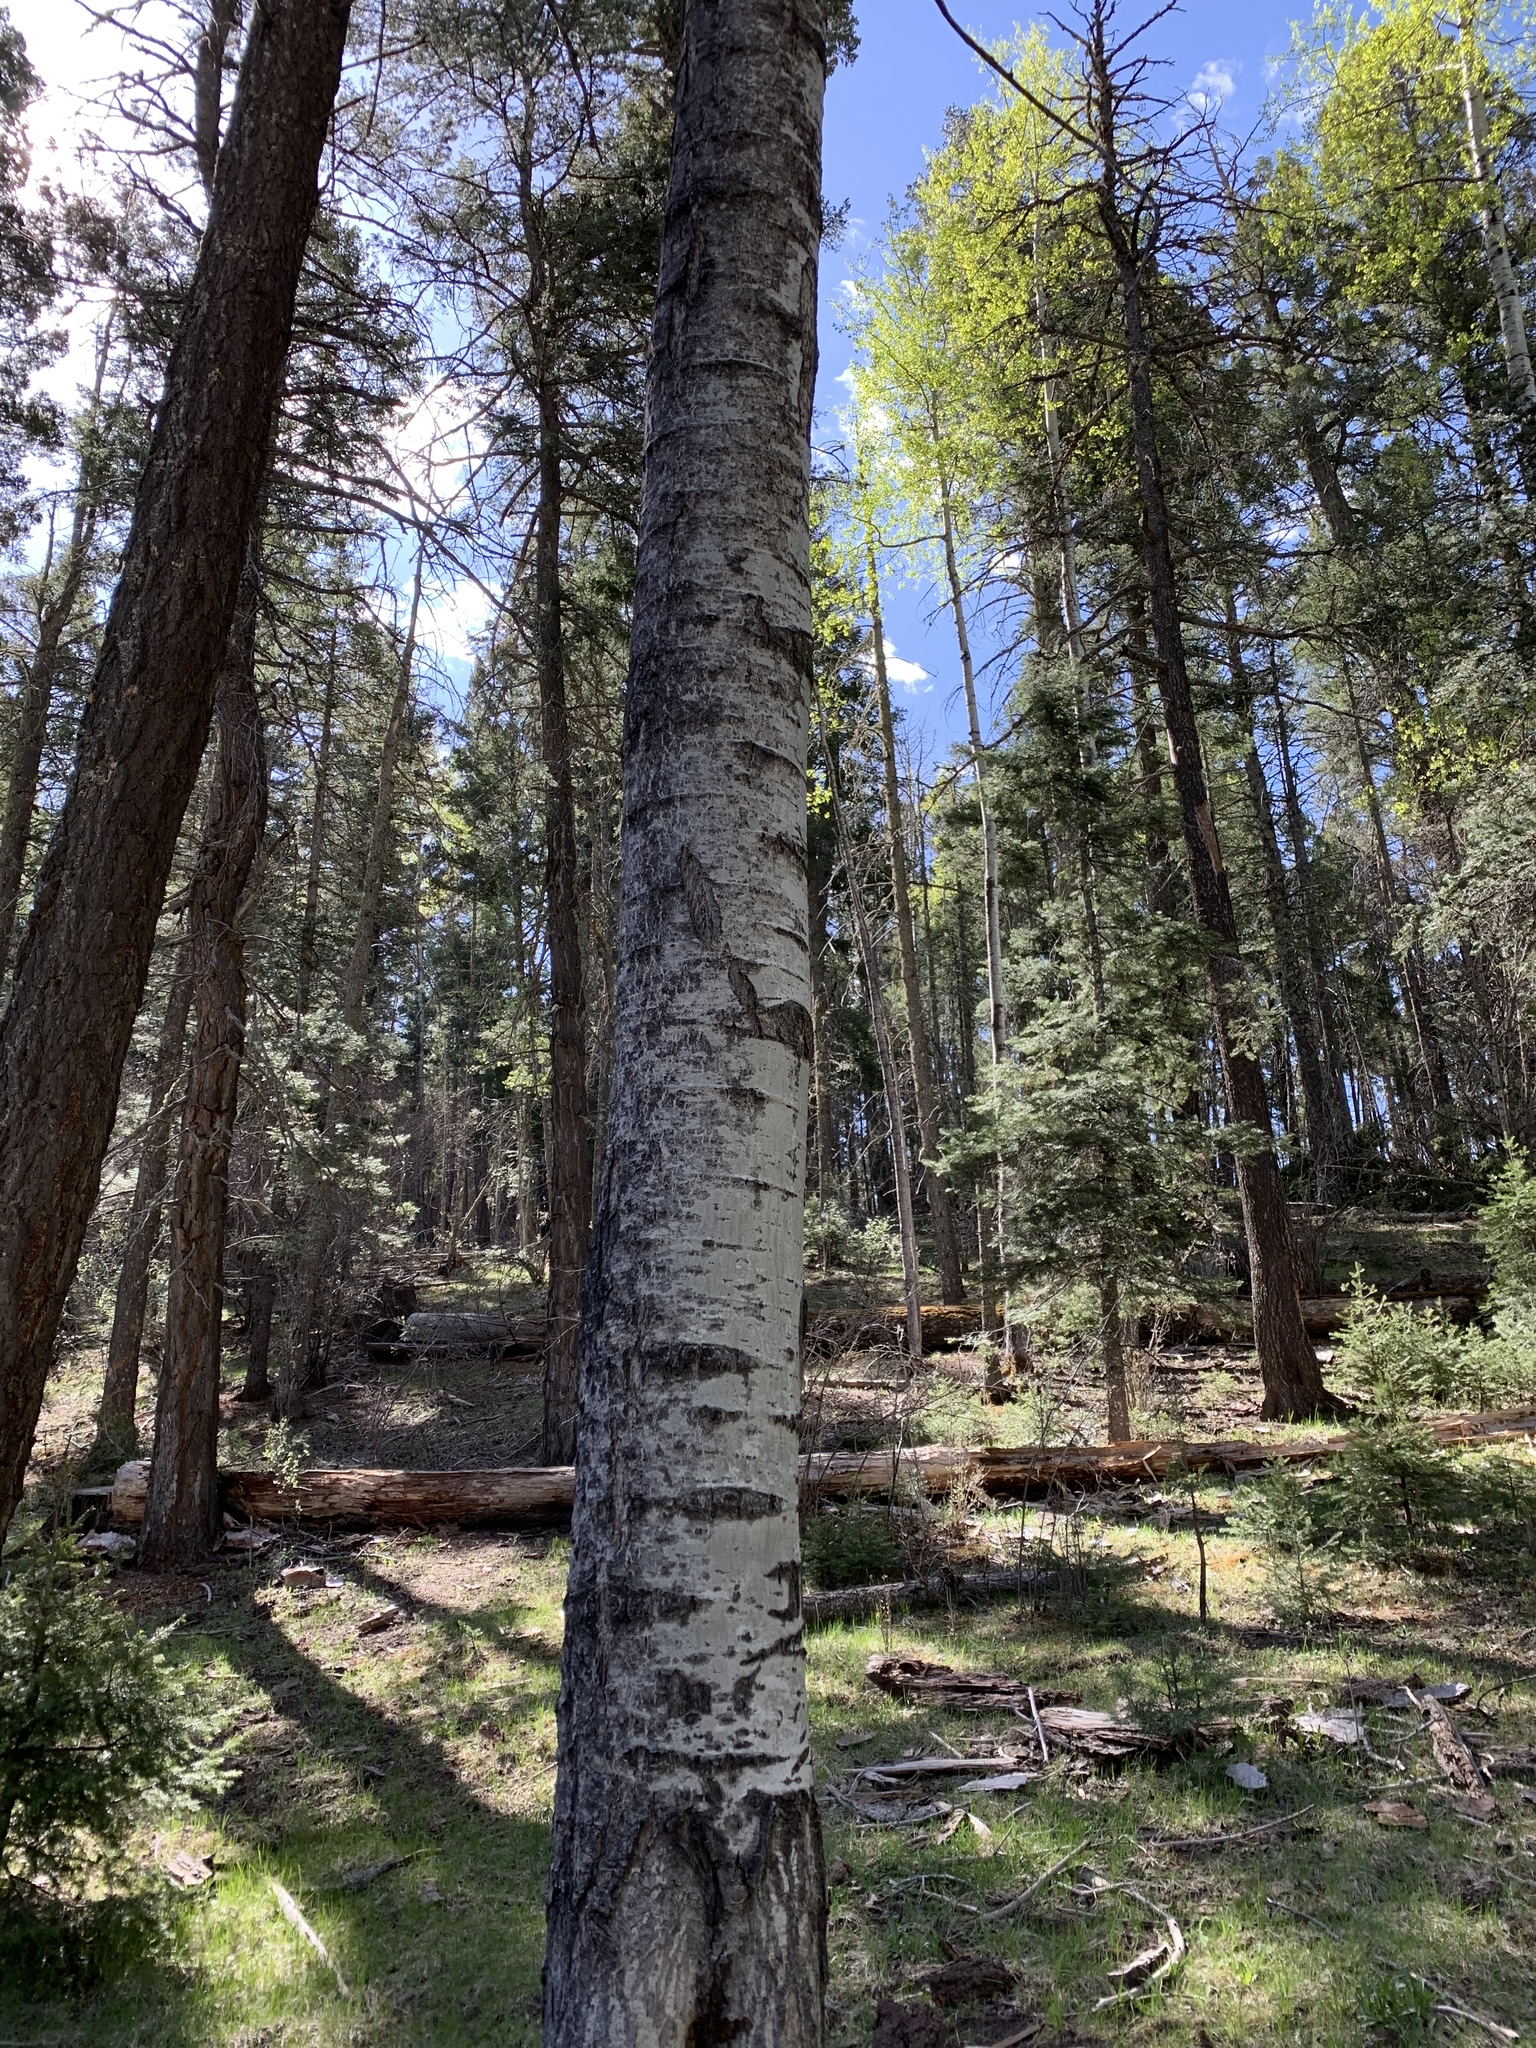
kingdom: Plantae
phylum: Tracheophyta
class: Magnoliopsida
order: Malpighiales
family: Salicaceae
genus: Populus
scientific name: Populus tremuloides
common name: Quaking aspen
